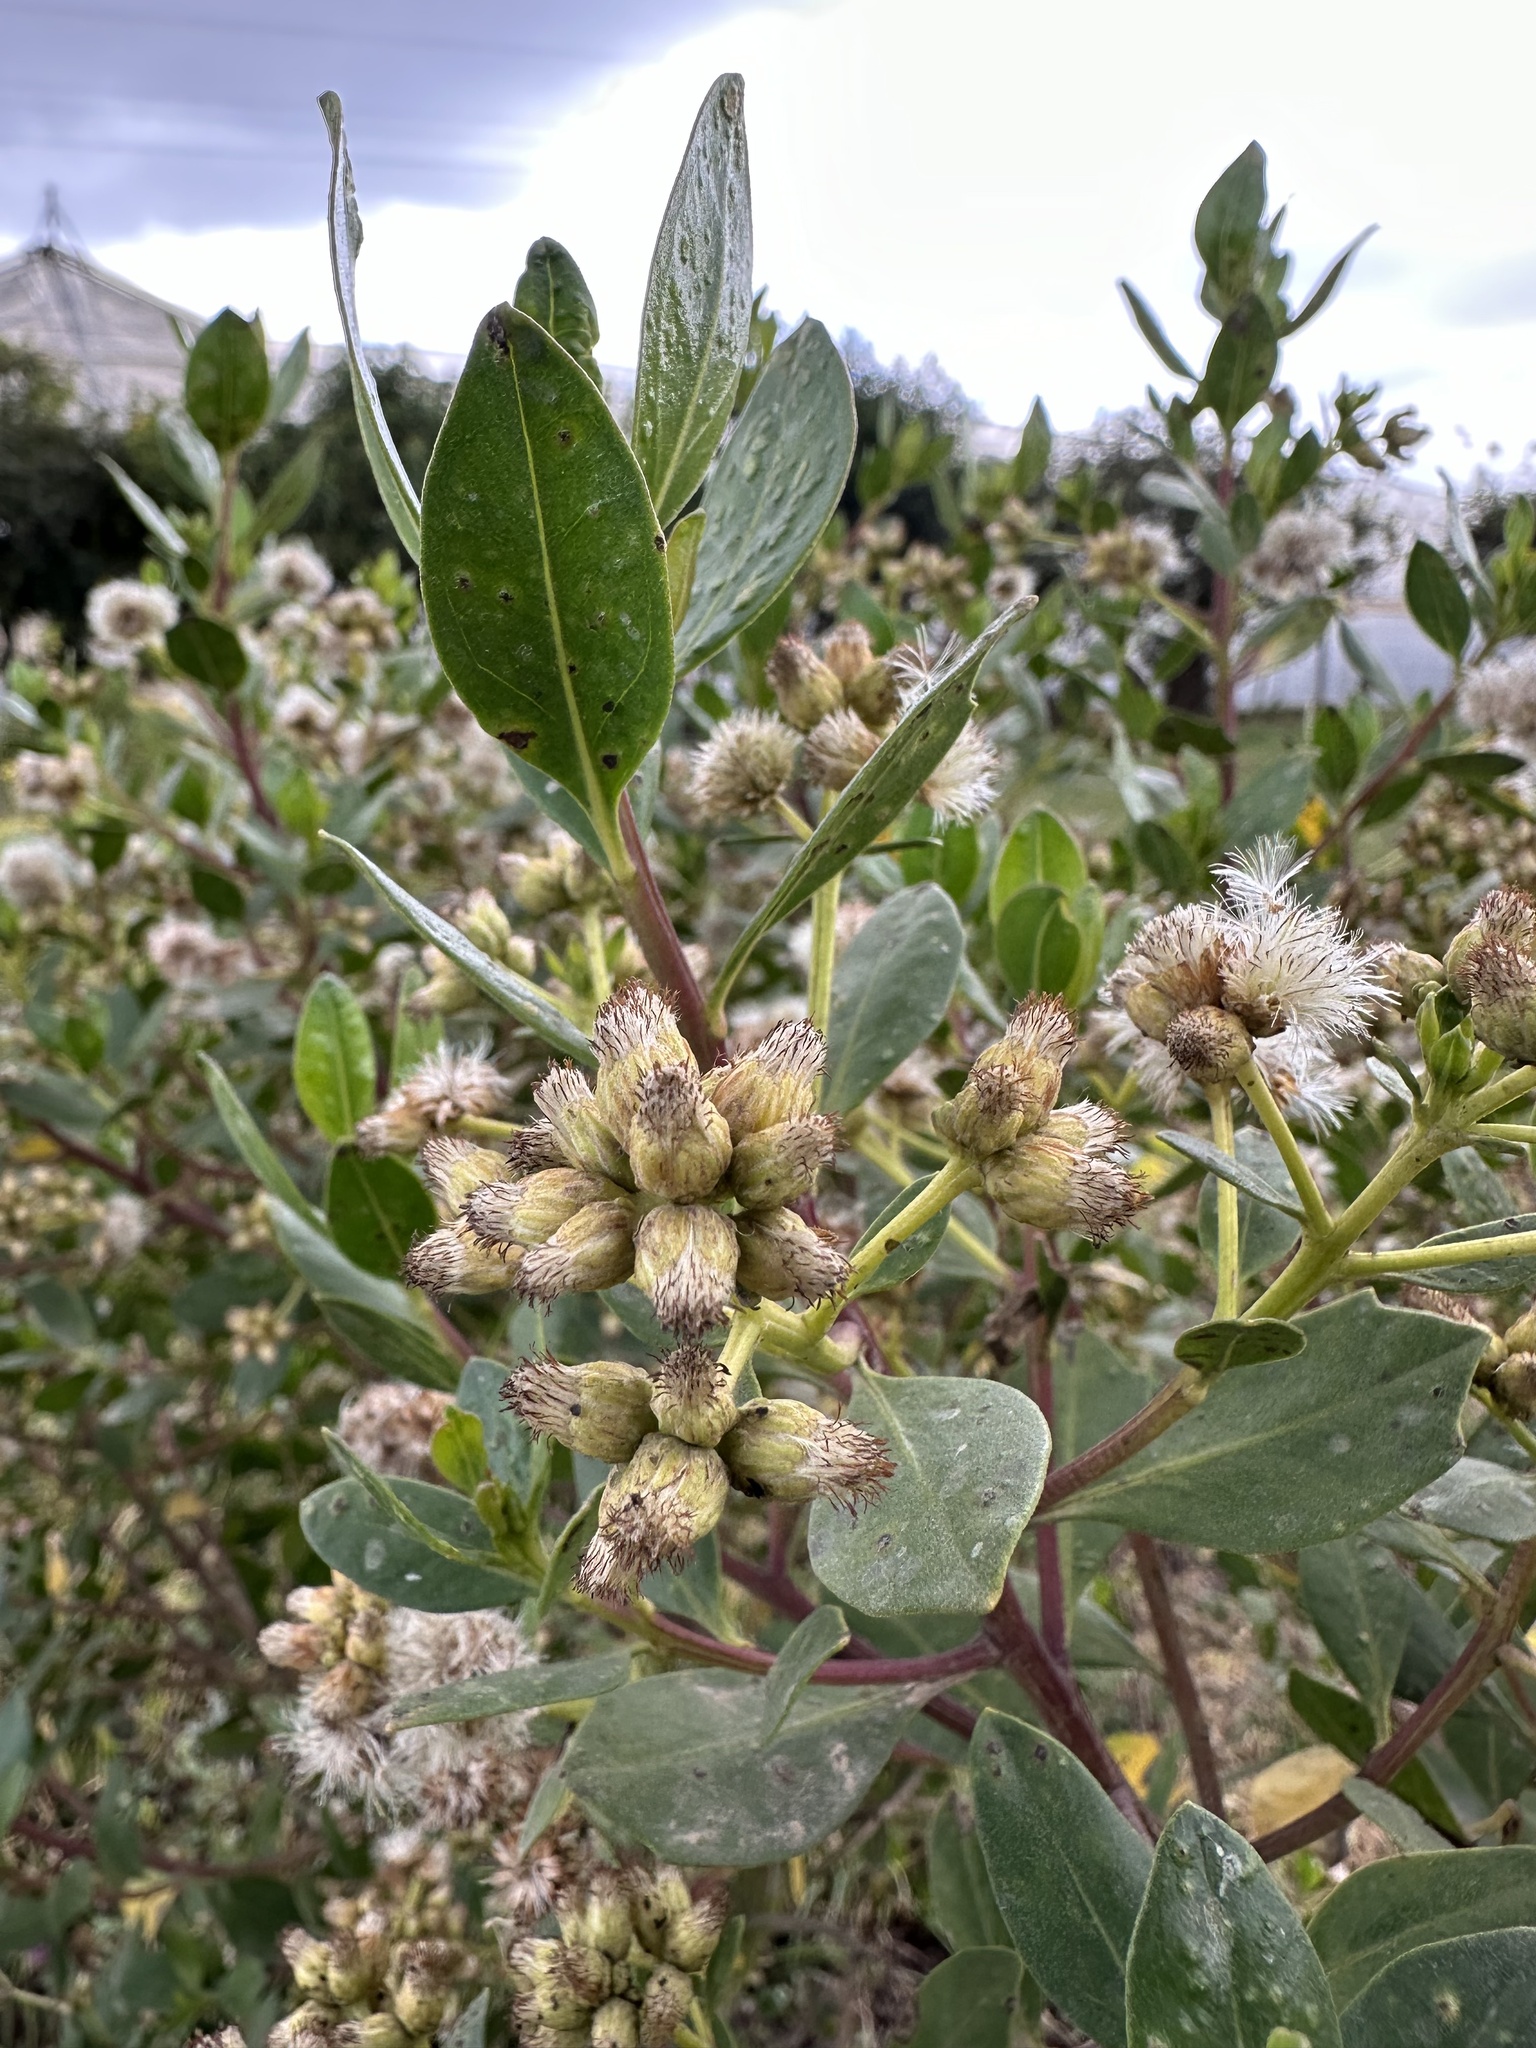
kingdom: Plantae
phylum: Tracheophyta
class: Magnoliopsida
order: Asterales
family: Asteraceae
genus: Baccharis
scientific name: Baccharis macrantha
